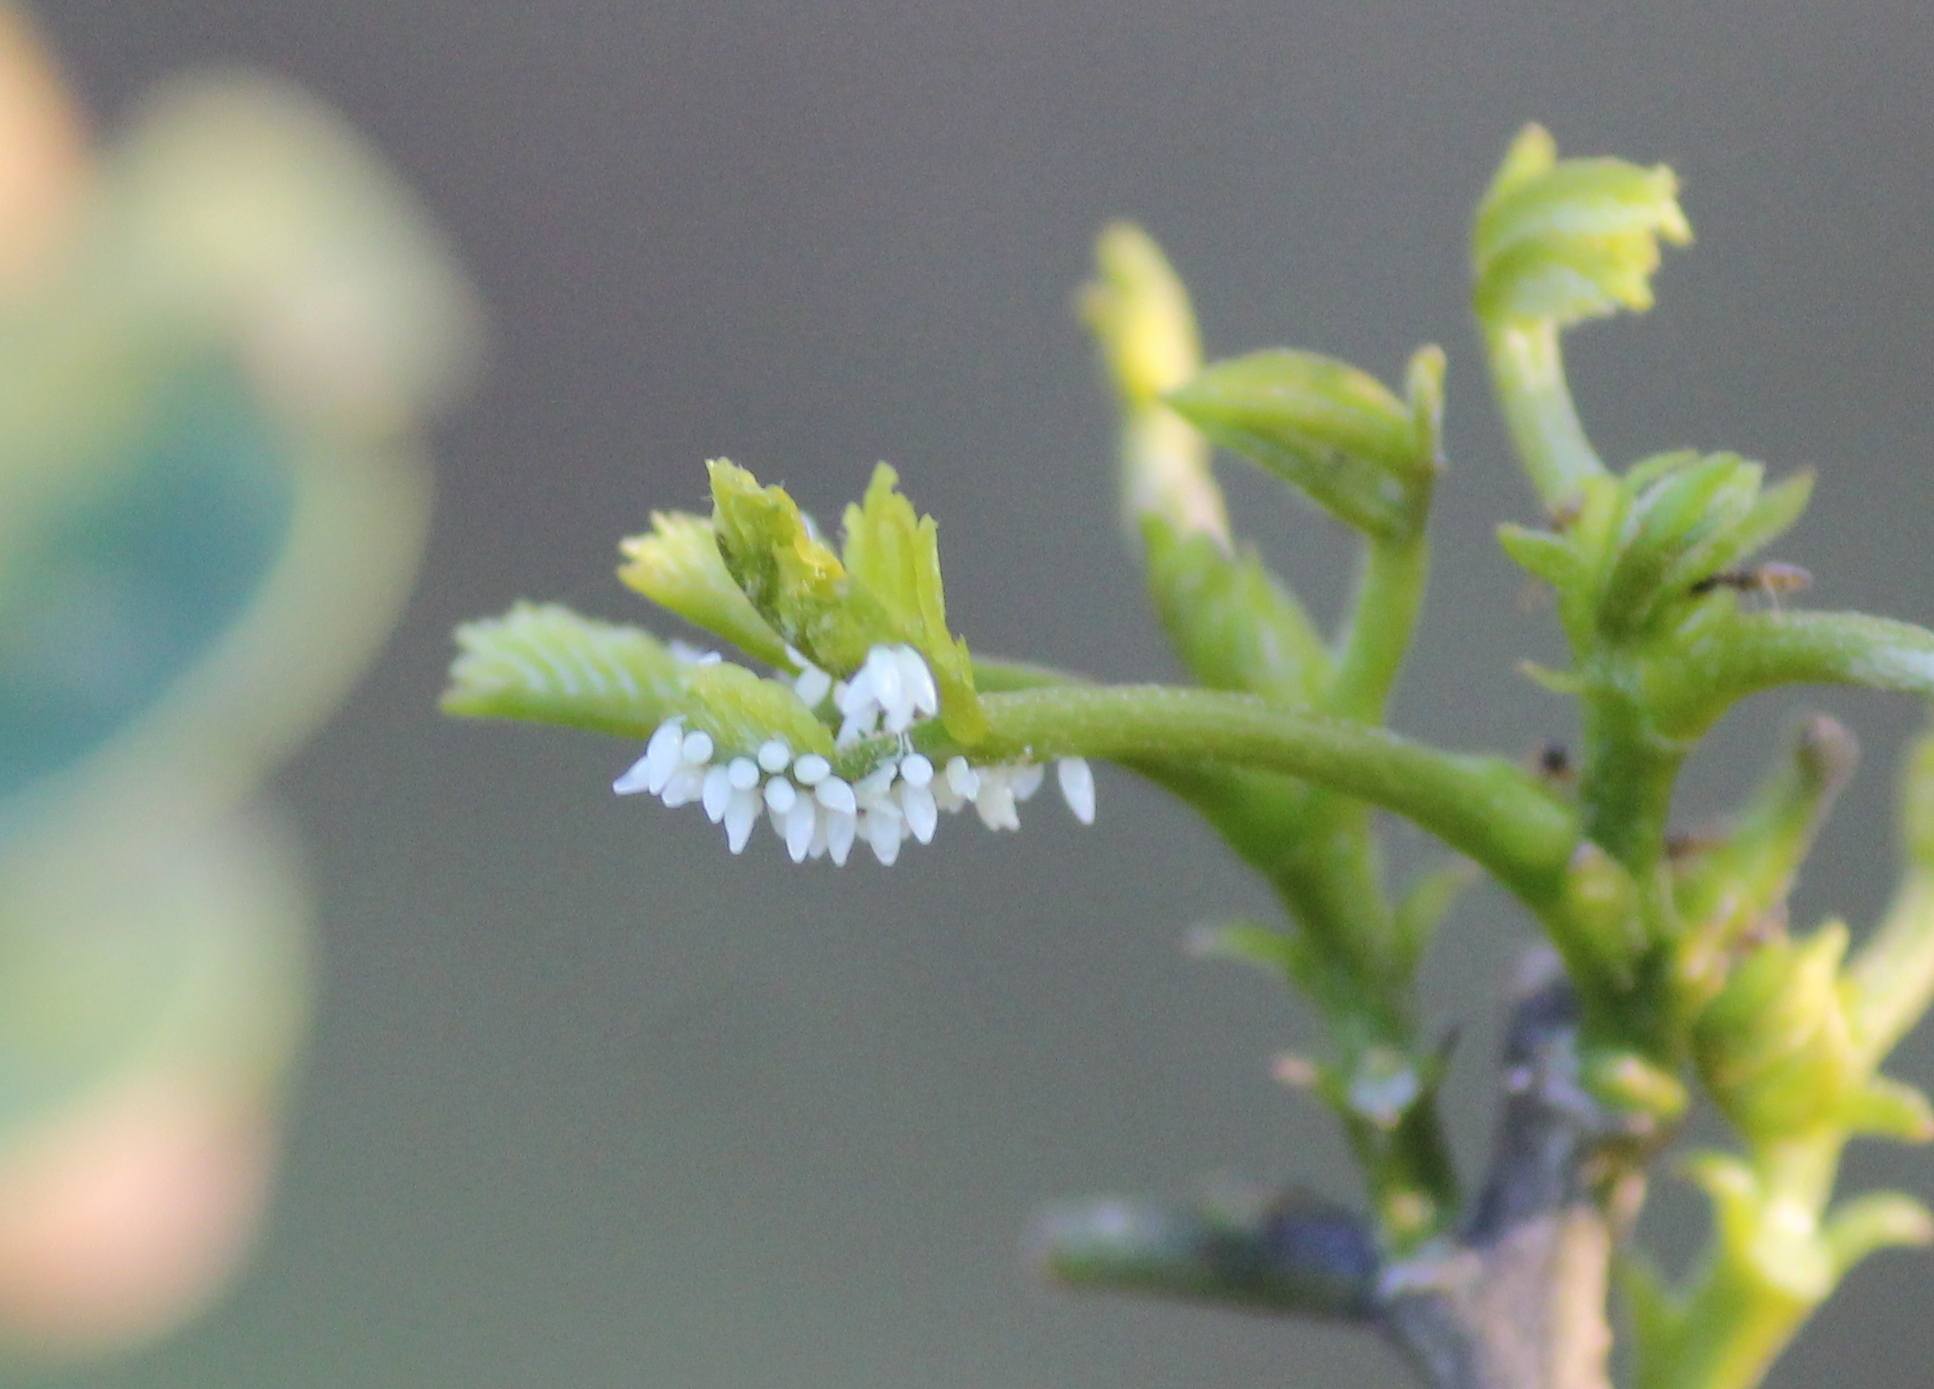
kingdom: Animalia
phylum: Arthropoda
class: Insecta
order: Lepidoptera
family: Pieridae
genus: Eurema
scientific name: Eurema blanda
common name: Three-spot grass yellow
